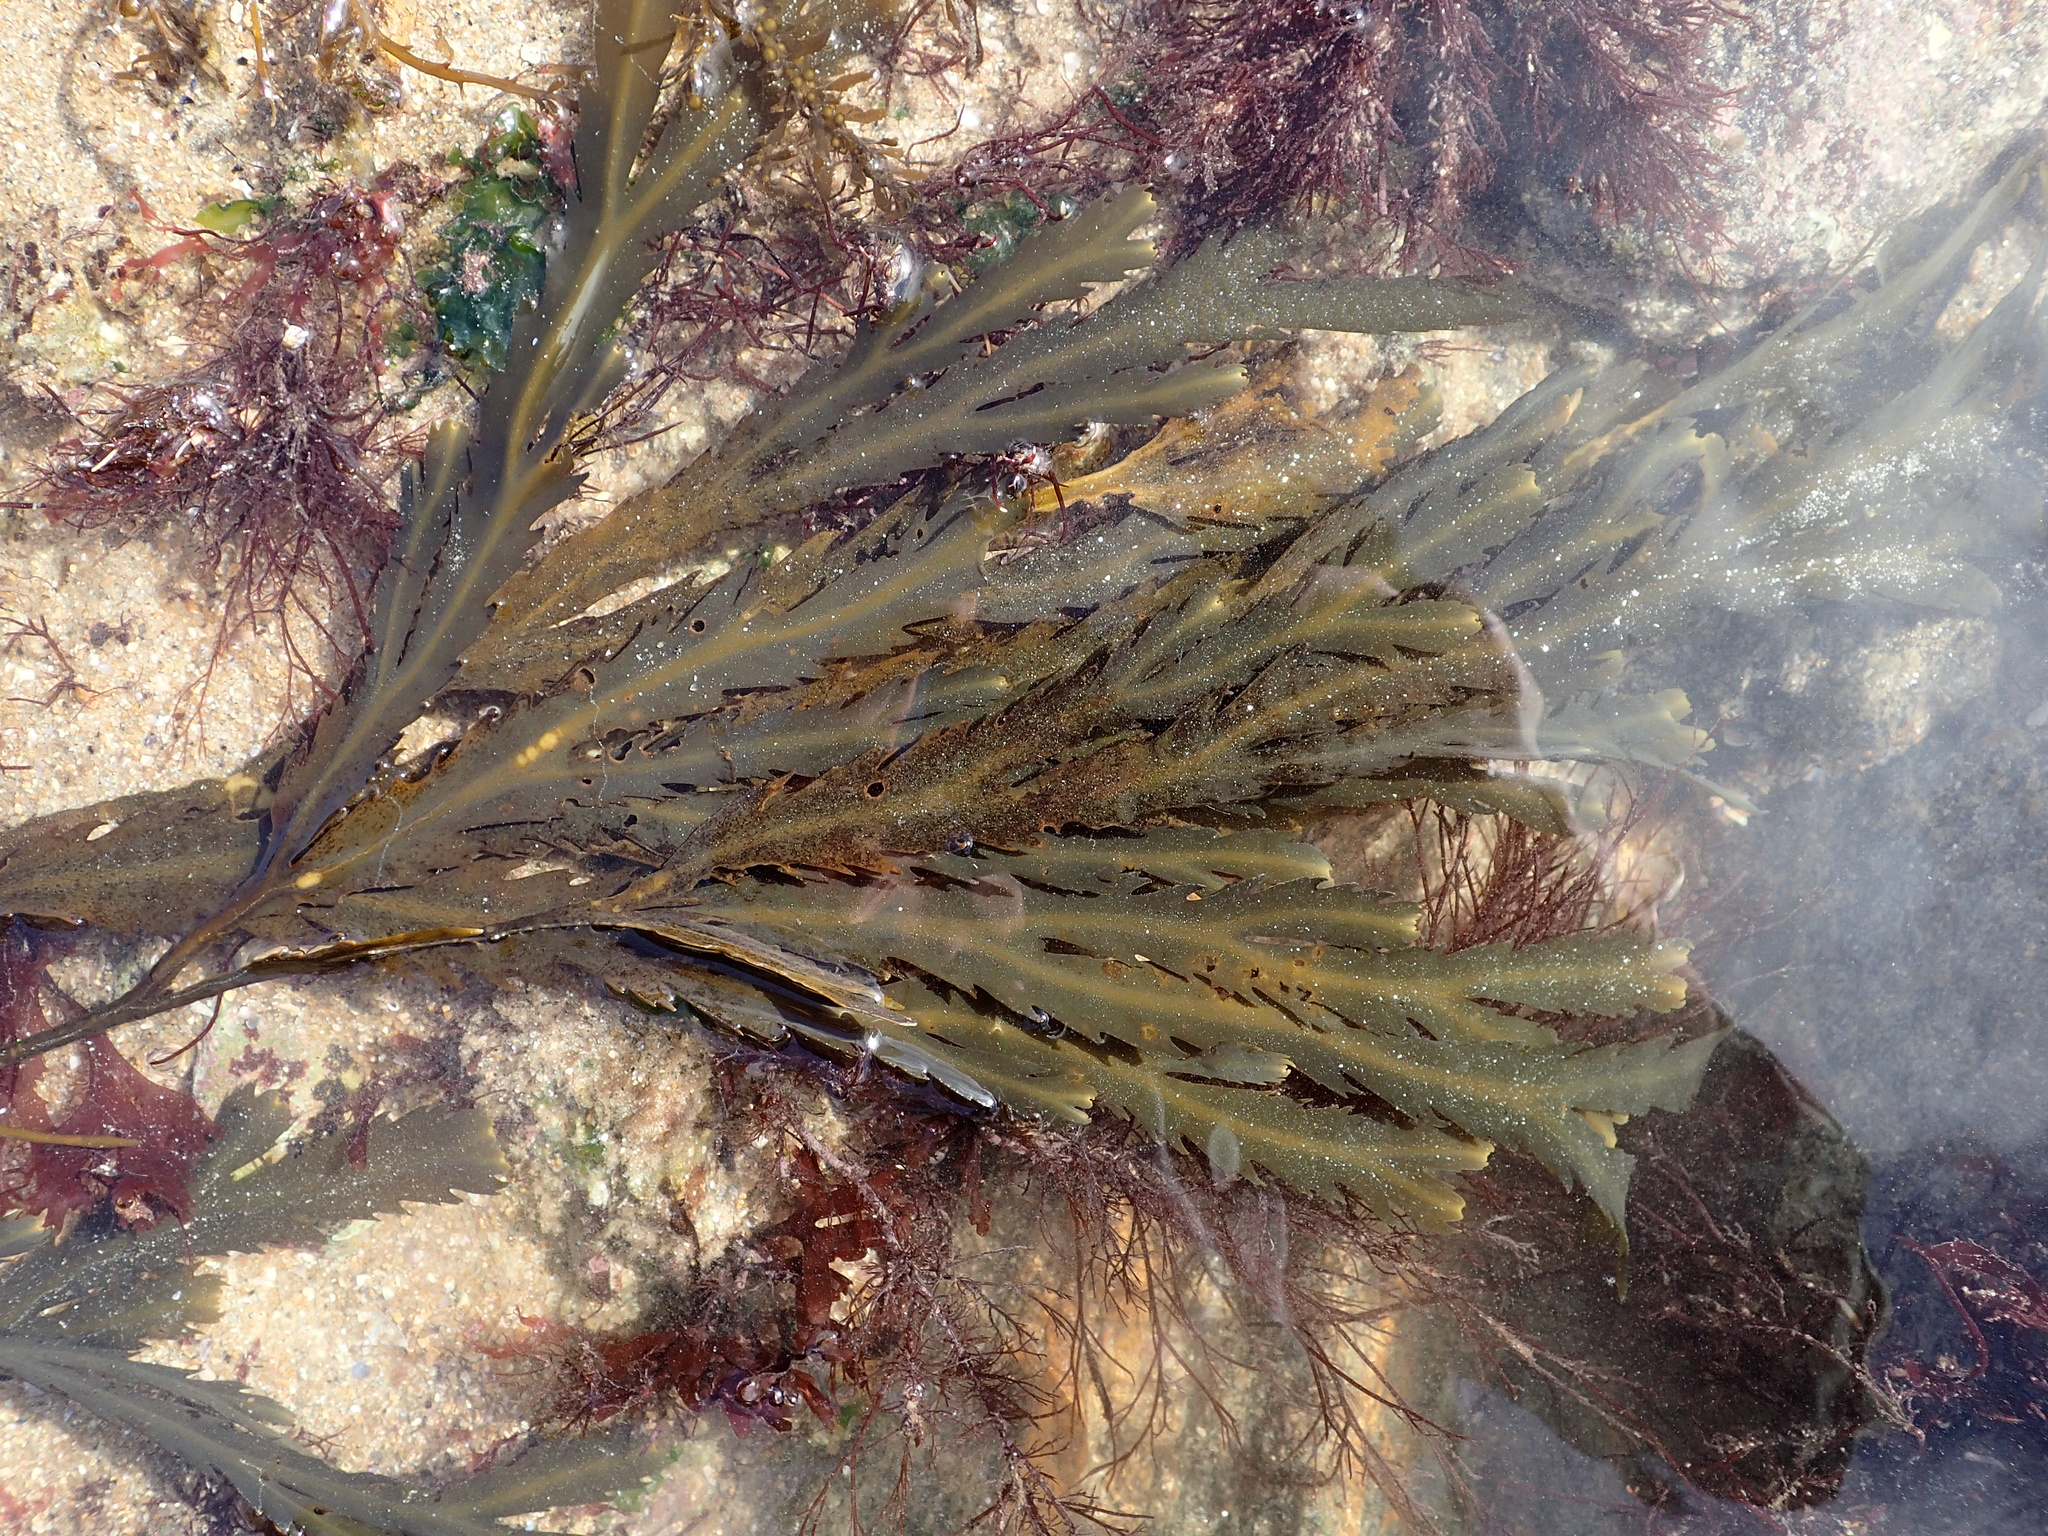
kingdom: Chromista
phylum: Ochrophyta
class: Phaeophyceae
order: Fucales
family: Fucaceae
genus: Fucus
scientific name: Fucus serratus
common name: Toothed wrack
